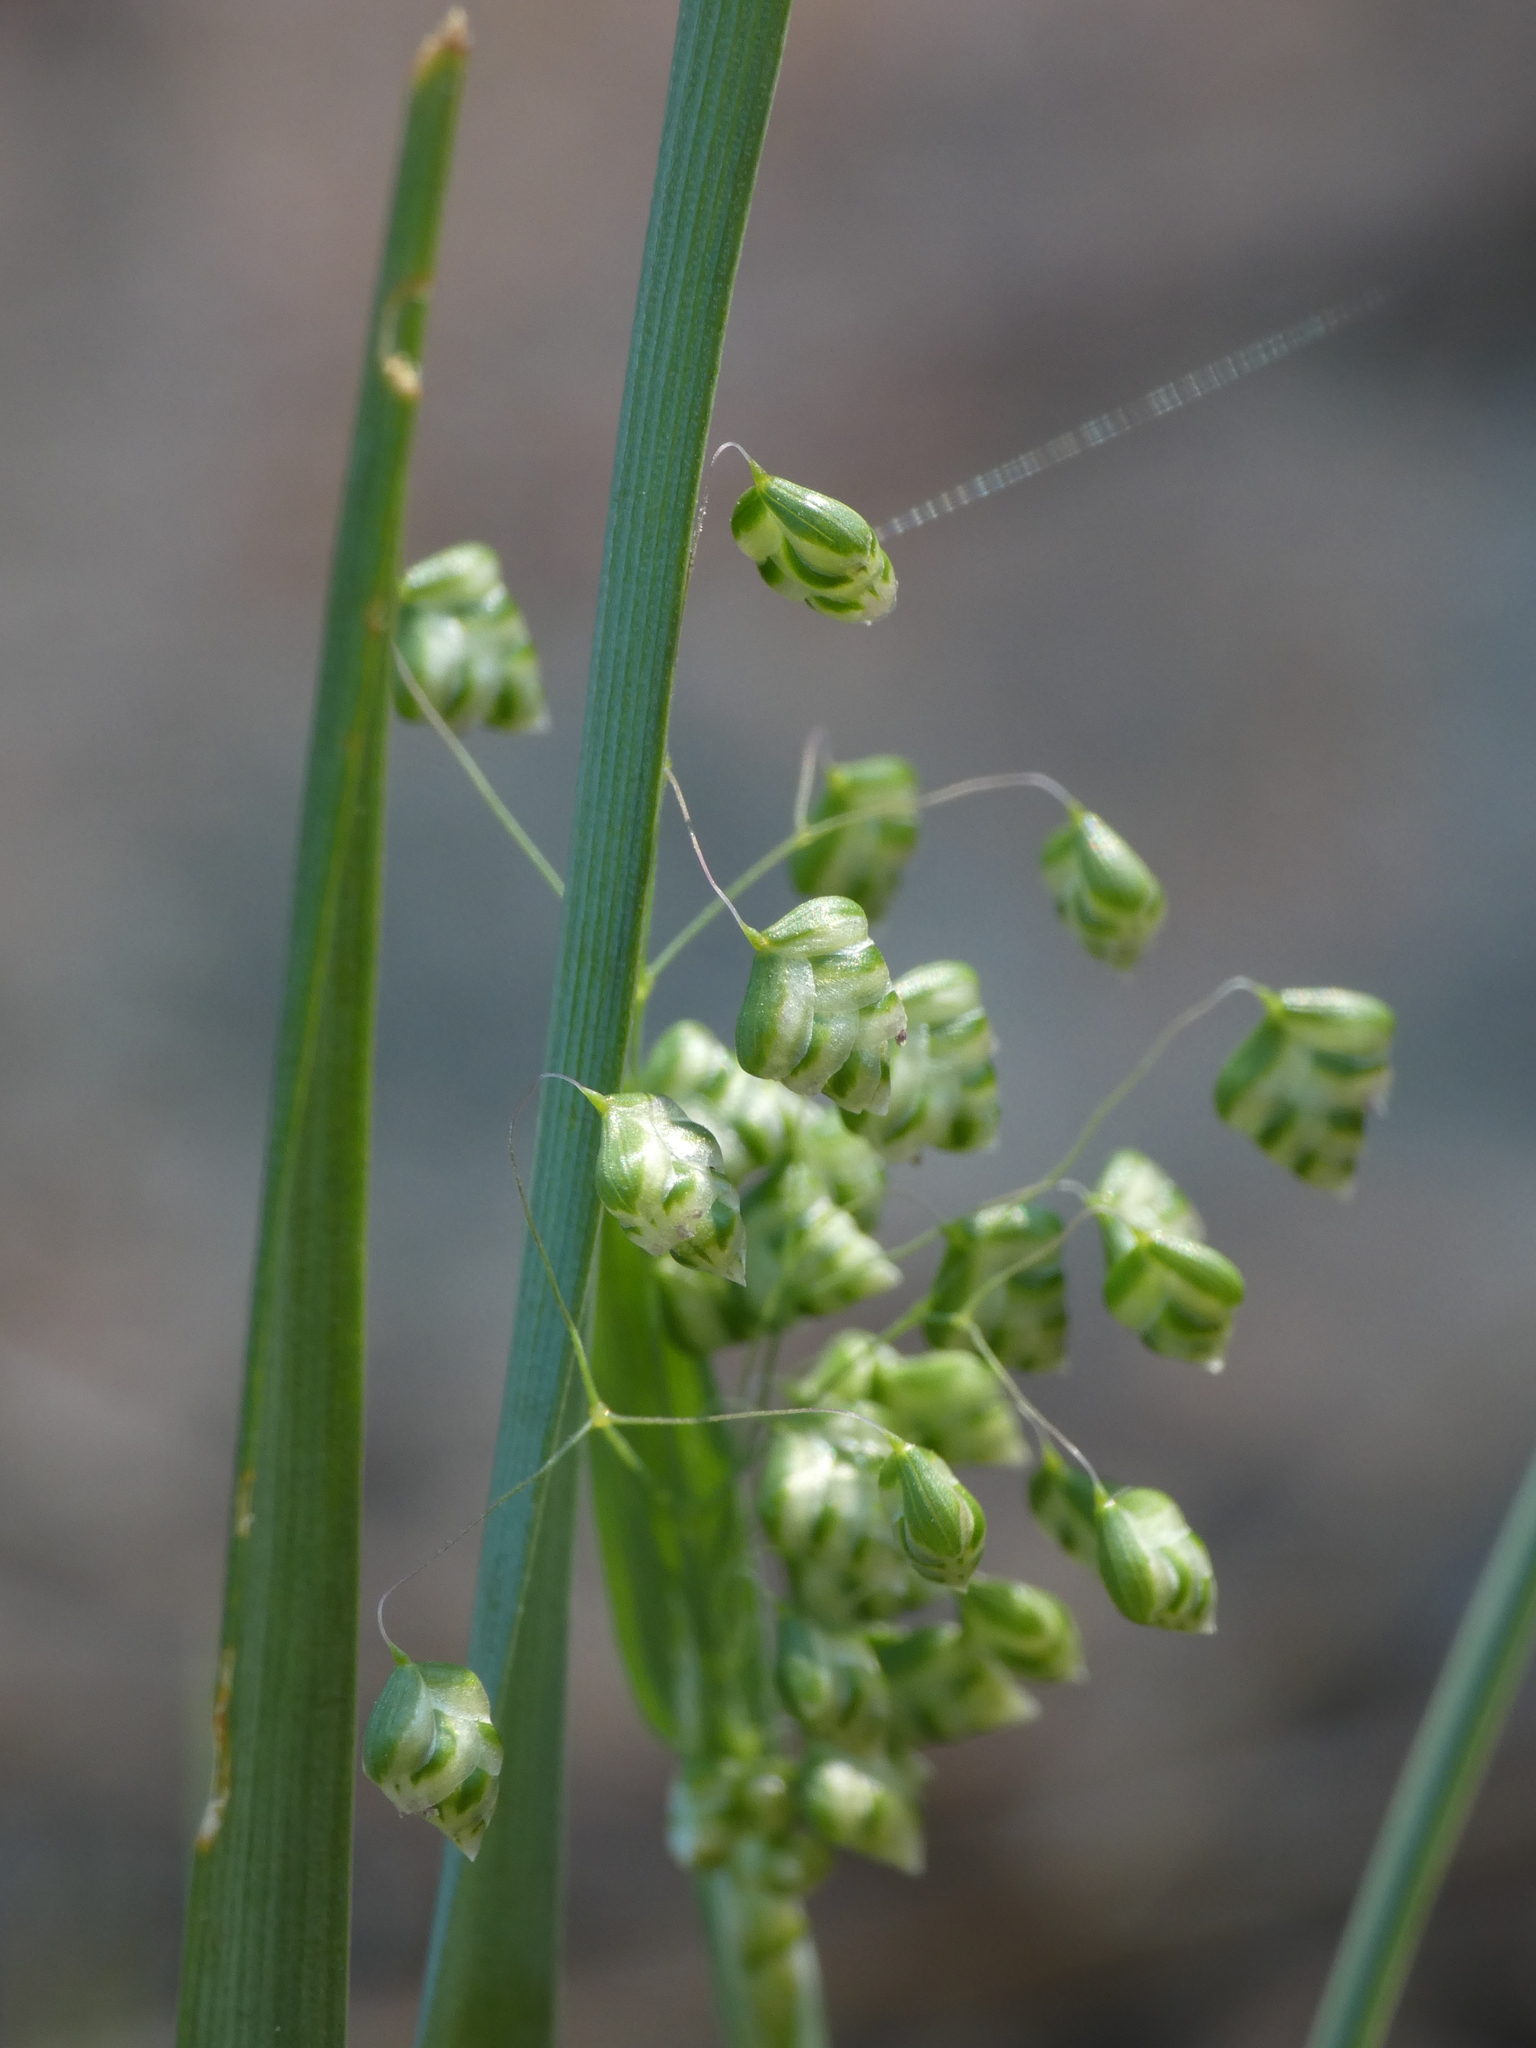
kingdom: Plantae
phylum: Tracheophyta
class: Liliopsida
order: Poales
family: Poaceae
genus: Briza
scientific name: Briza minor
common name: Lesser quaking-grass
